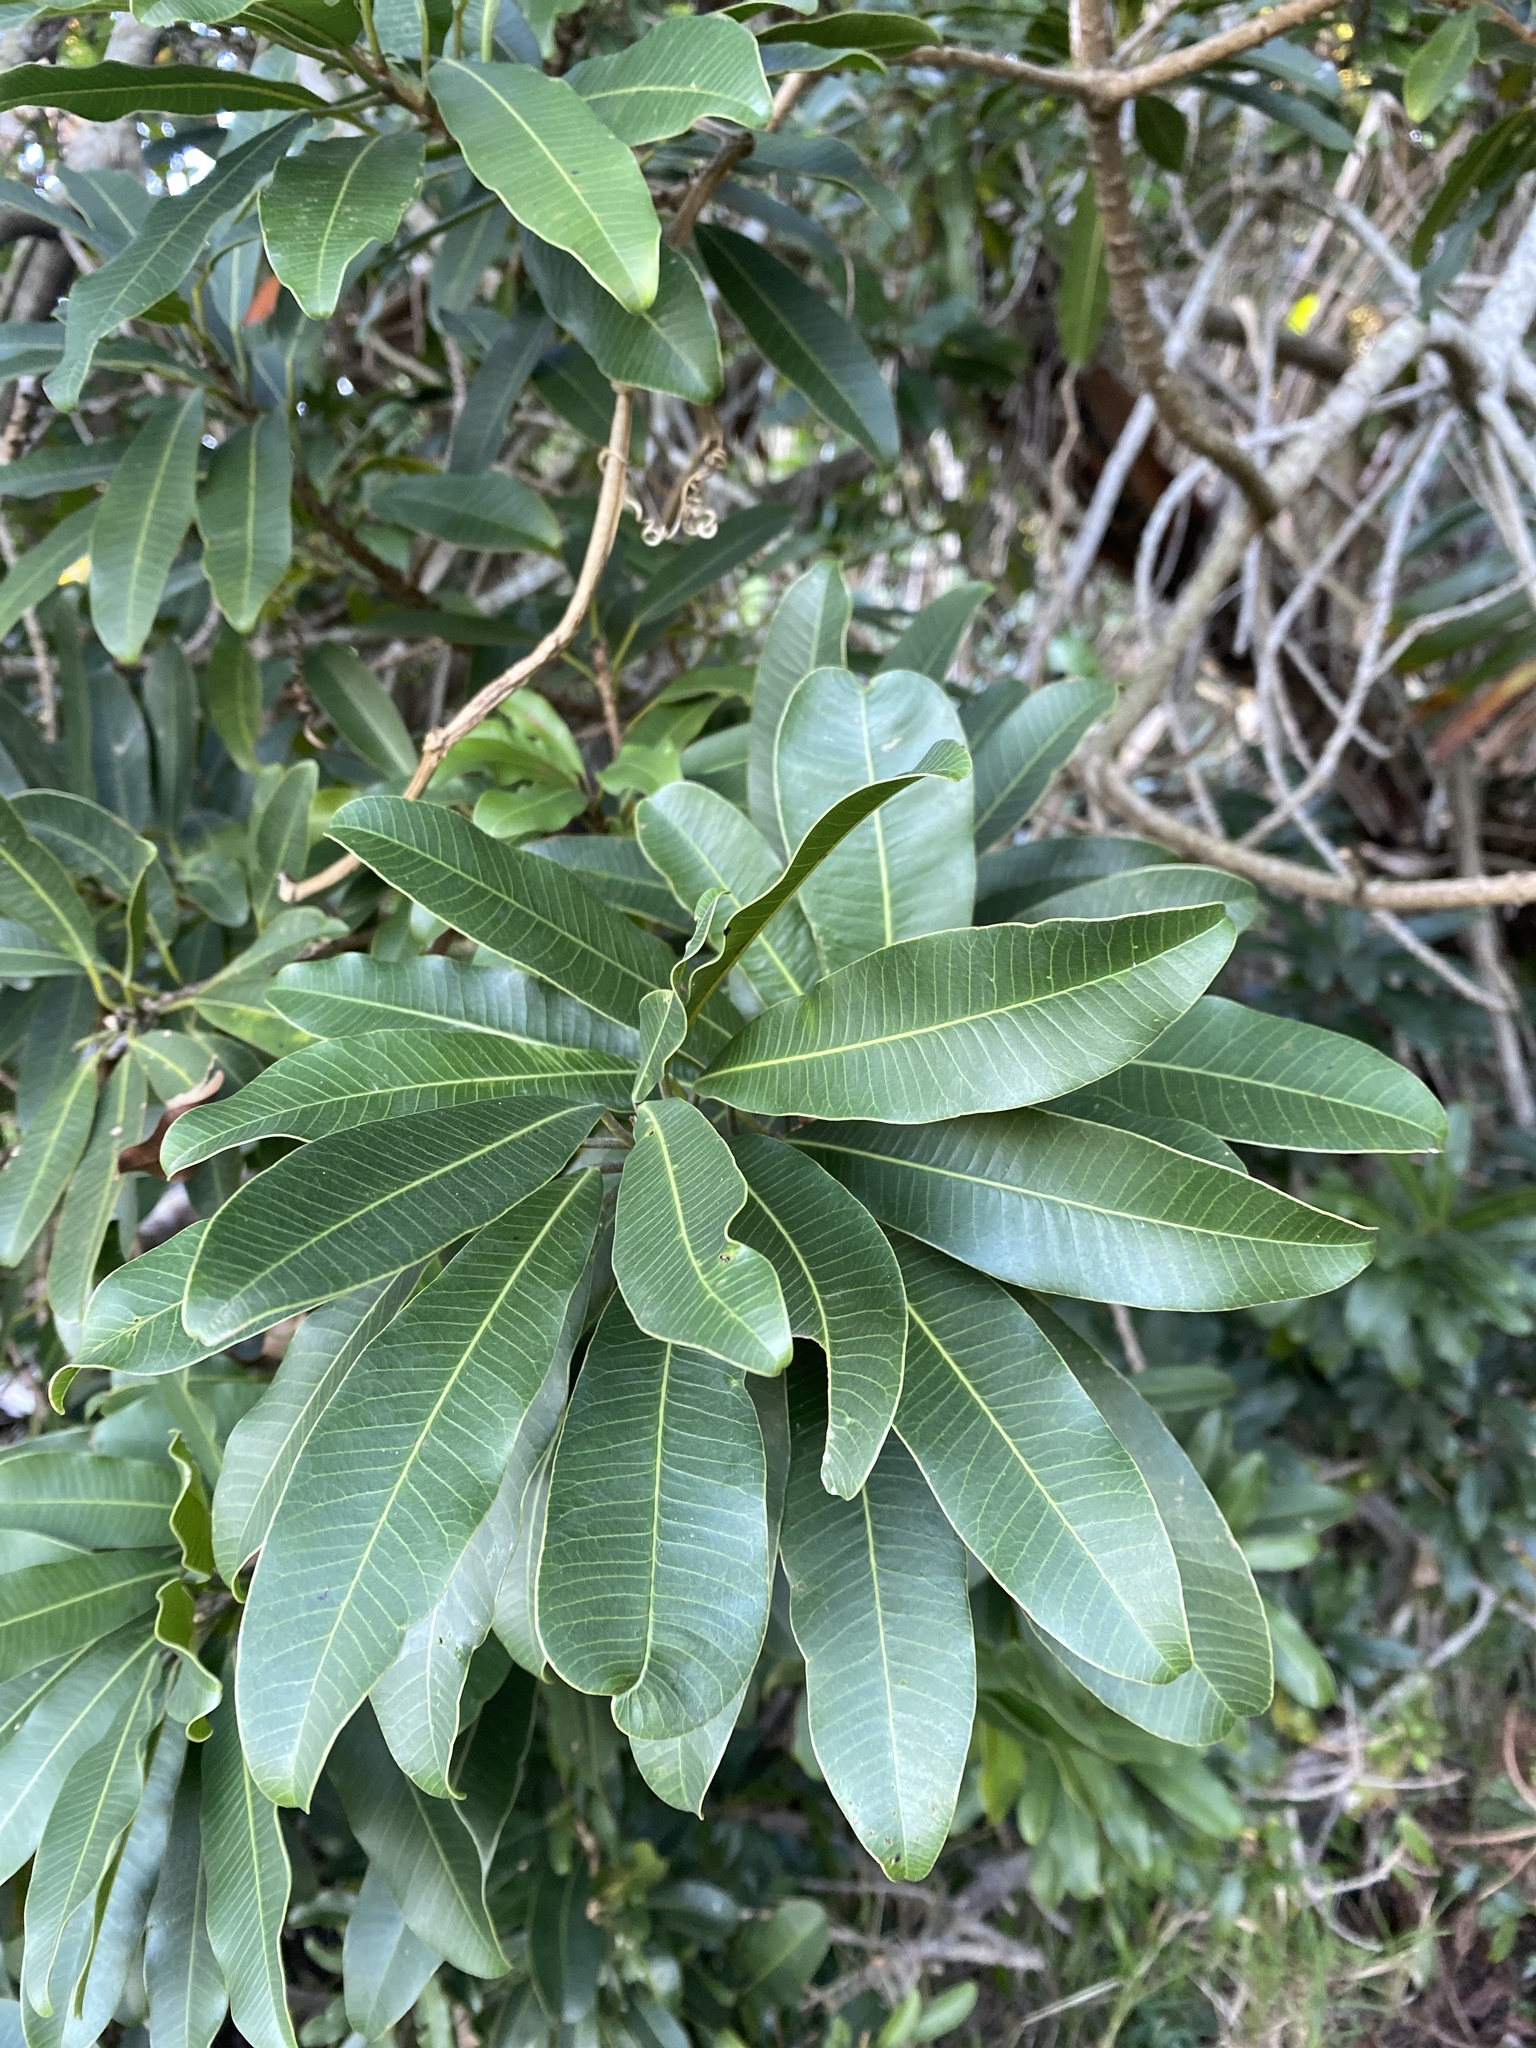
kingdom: Plantae
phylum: Tracheophyta
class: Magnoliopsida
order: Sapindales
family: Anacardiaceae
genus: Protorhus
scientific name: Protorhus longifolia
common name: Red-beech
